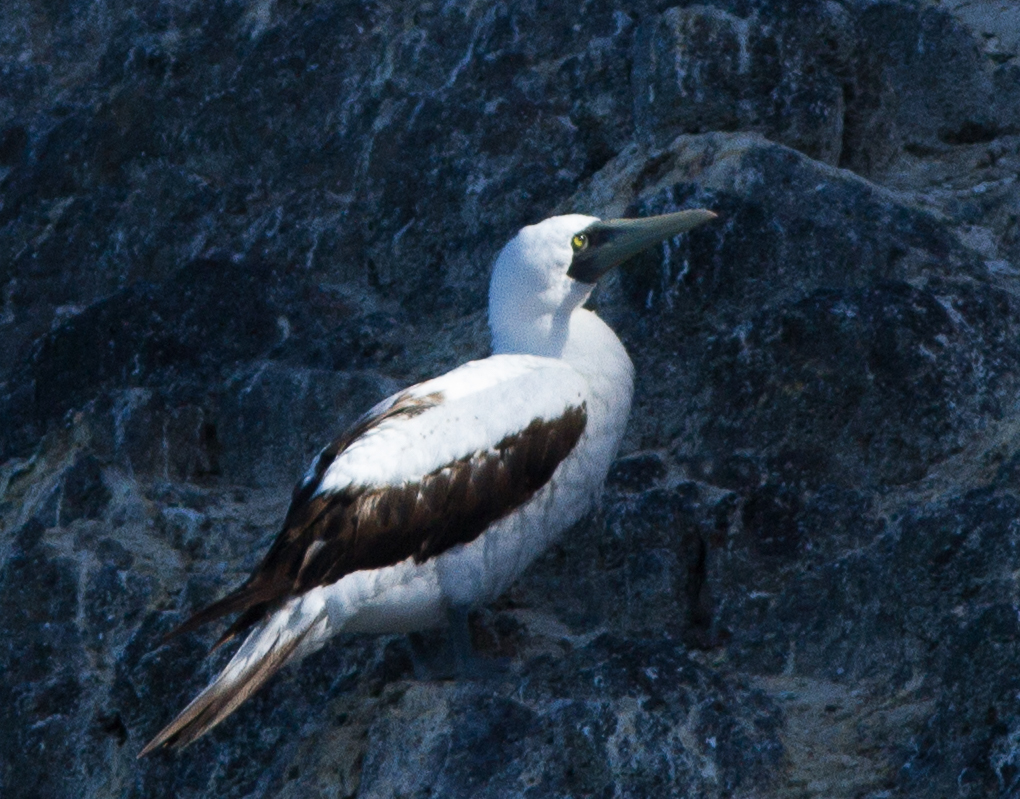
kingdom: Animalia
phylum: Chordata
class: Aves
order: Suliformes
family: Sulidae
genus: Sula
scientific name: Sula dactylatra
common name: Masked booby
